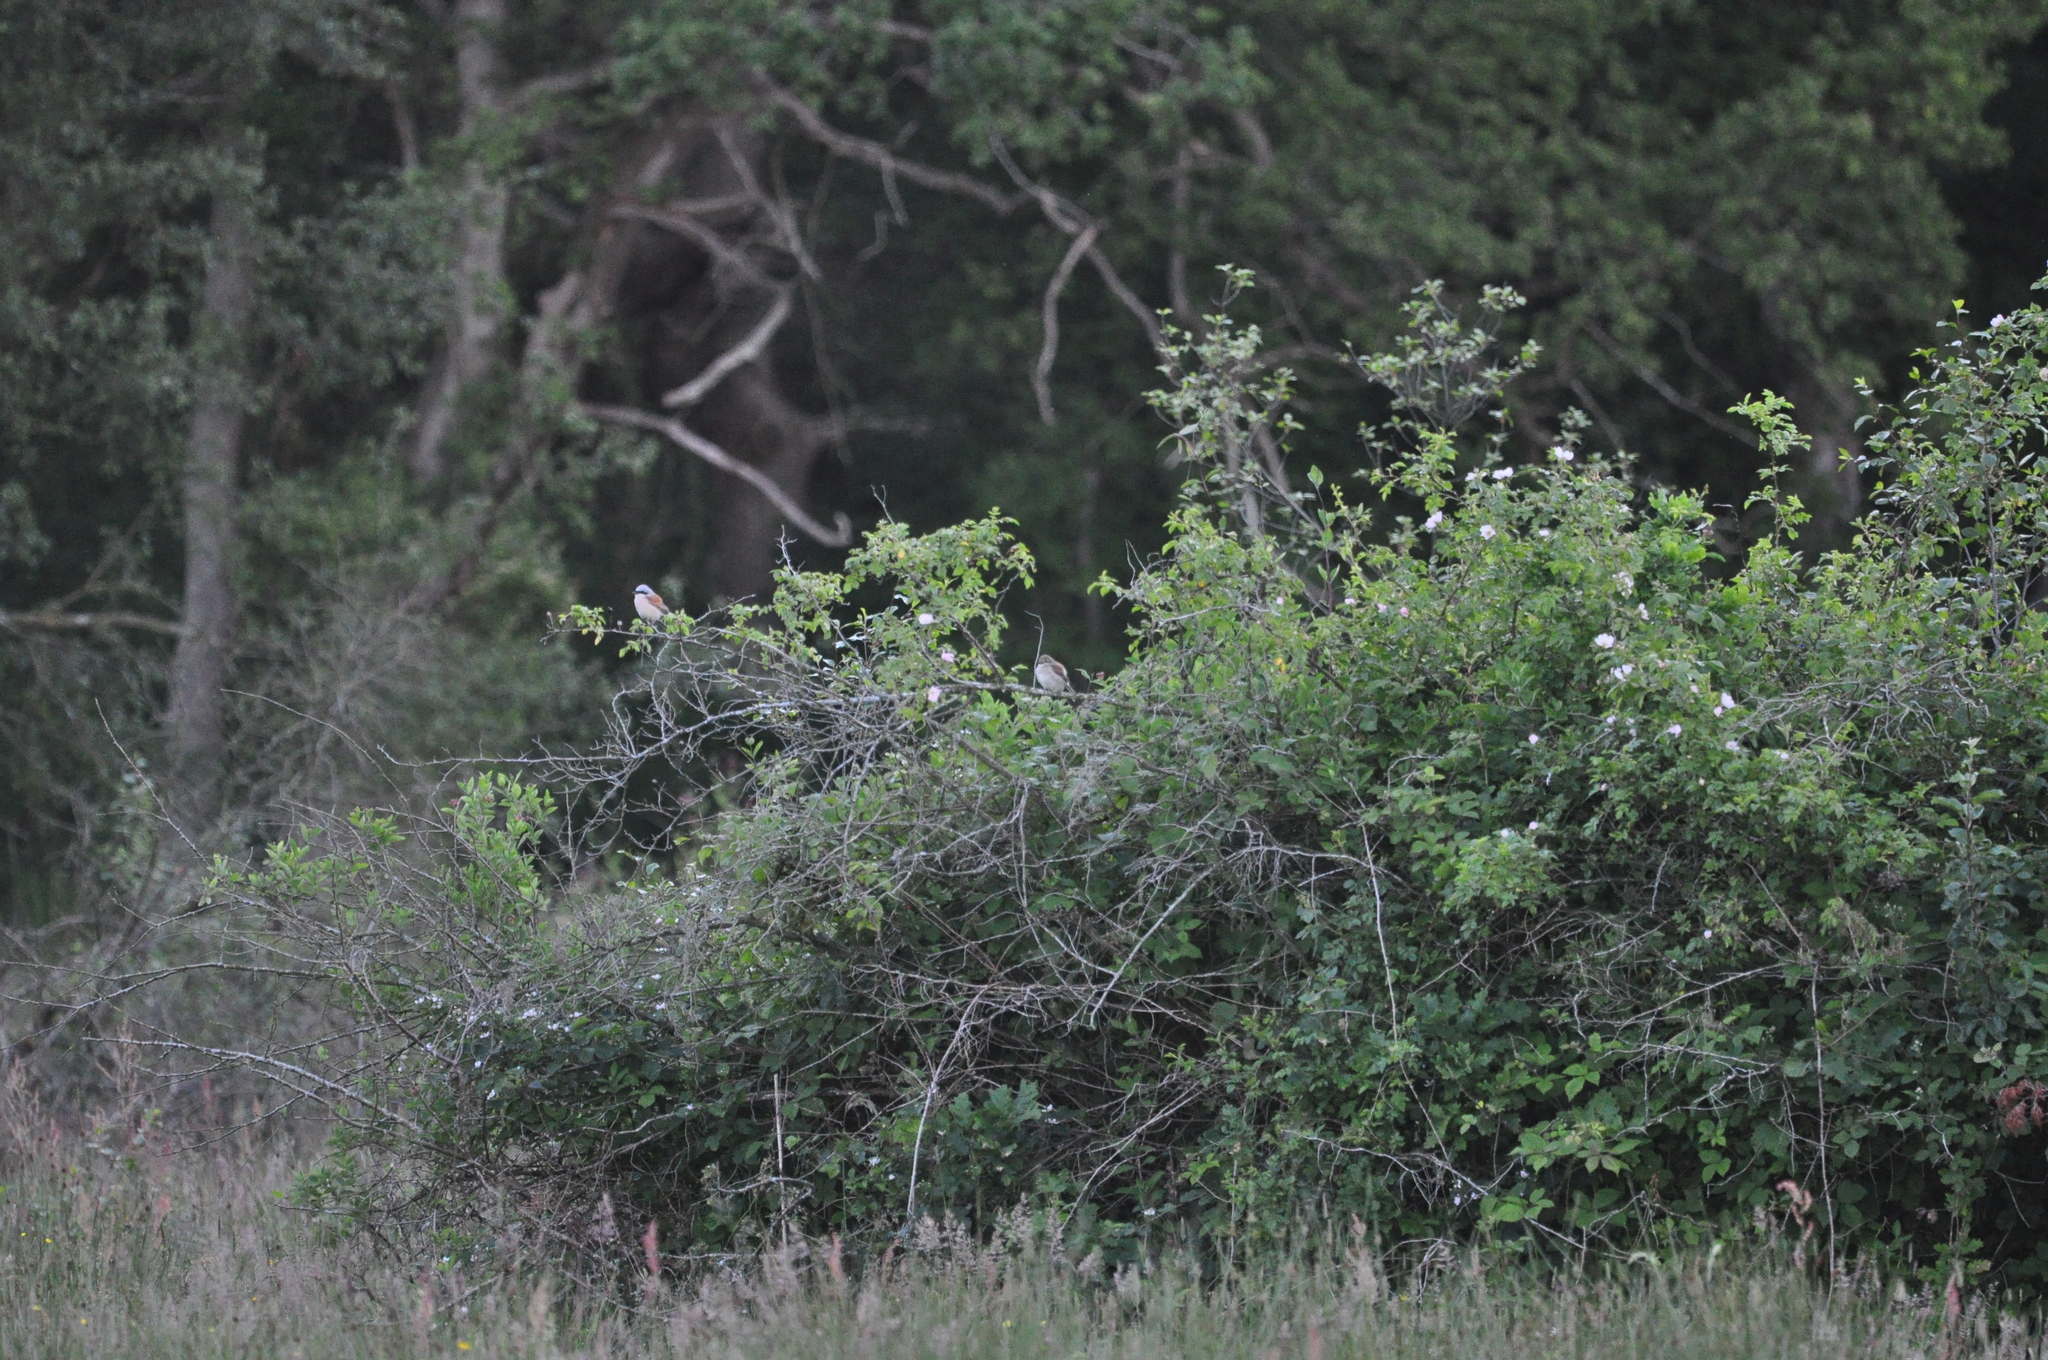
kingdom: Animalia
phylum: Chordata
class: Aves
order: Passeriformes
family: Laniidae
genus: Lanius
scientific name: Lanius collurio
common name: Red-backed shrike
